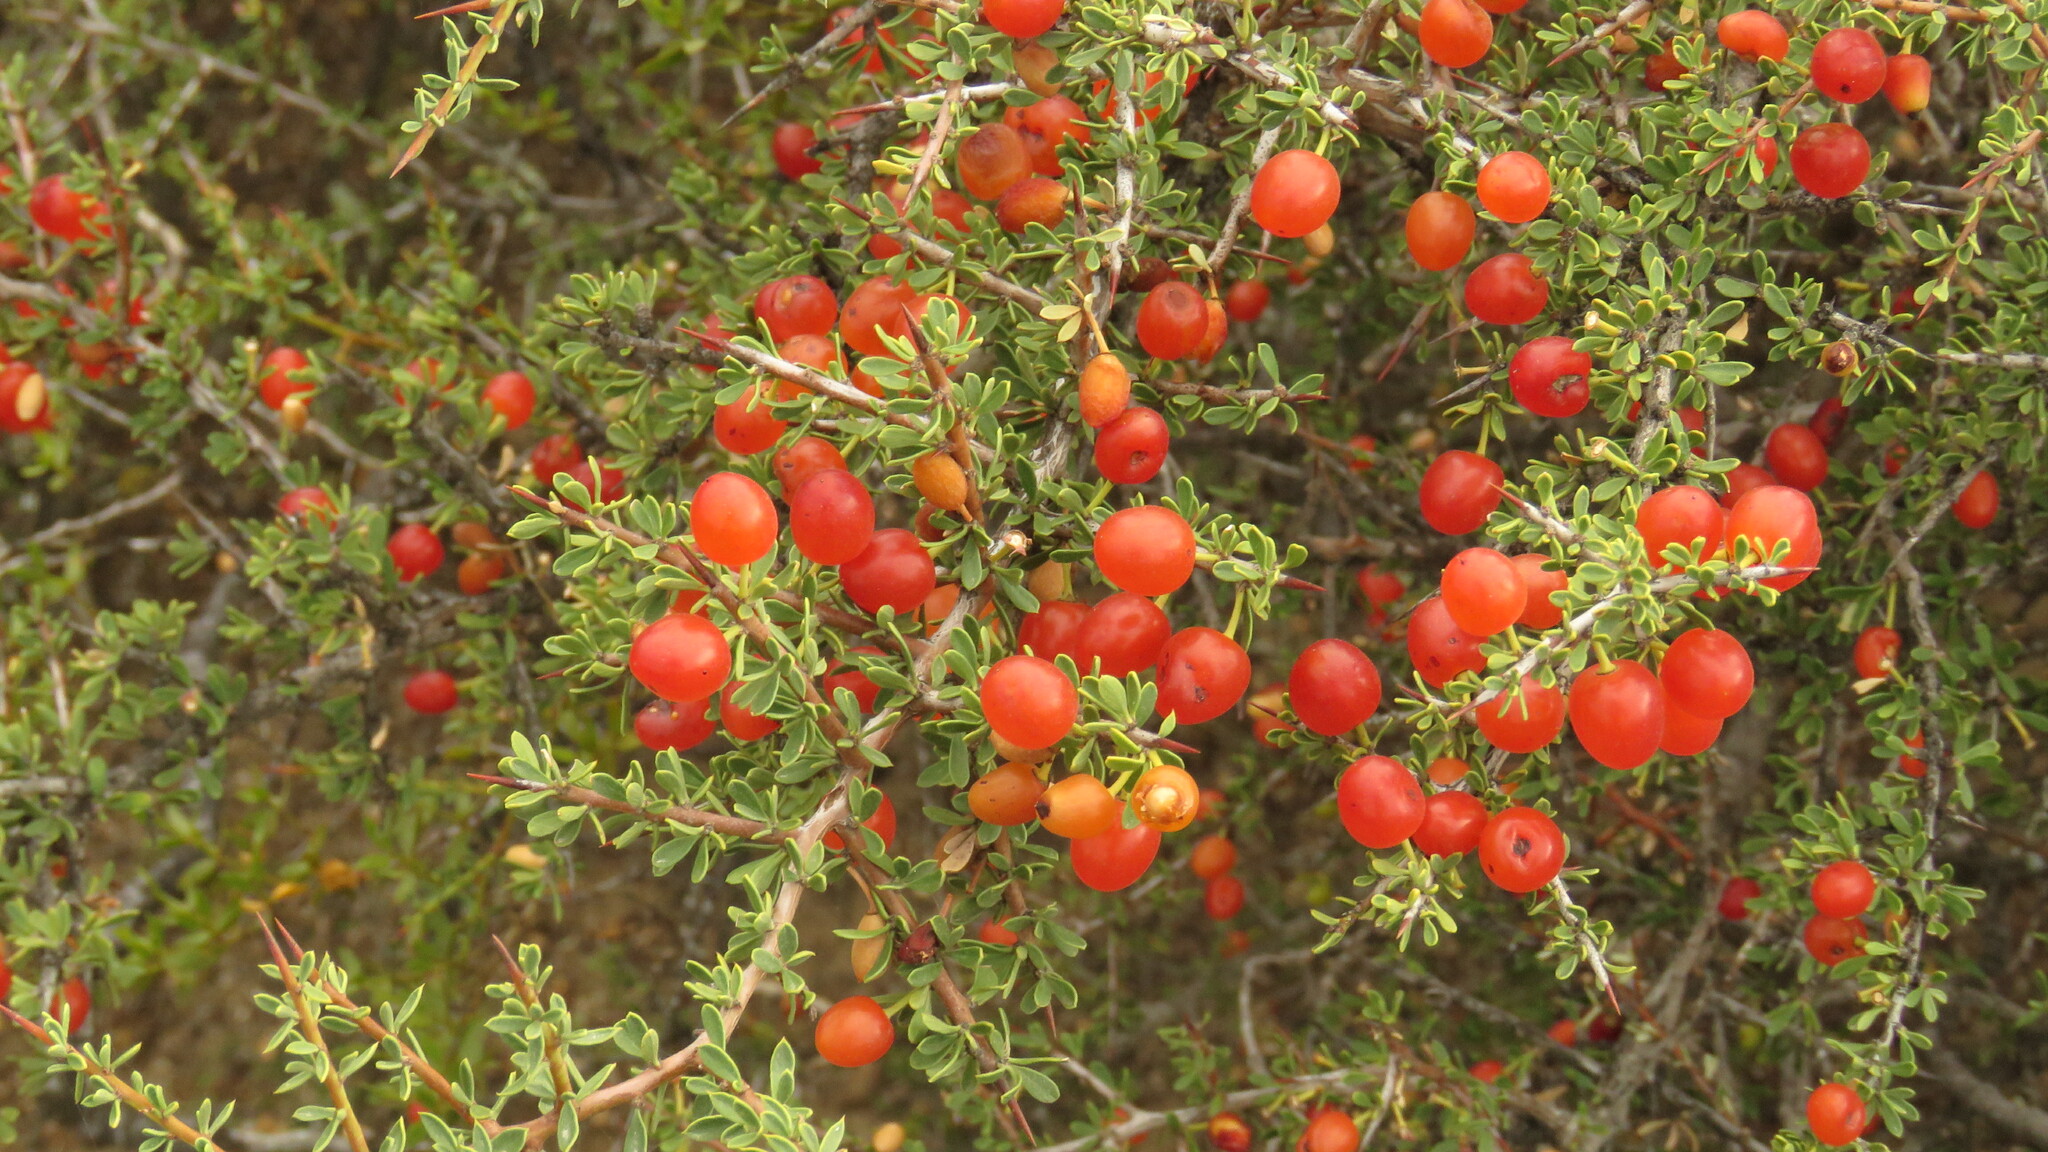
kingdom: Plantae
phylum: Tracheophyta
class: Magnoliopsida
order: Rosales
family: Rhamnaceae
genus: Condalia
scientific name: Condalia microphylla
